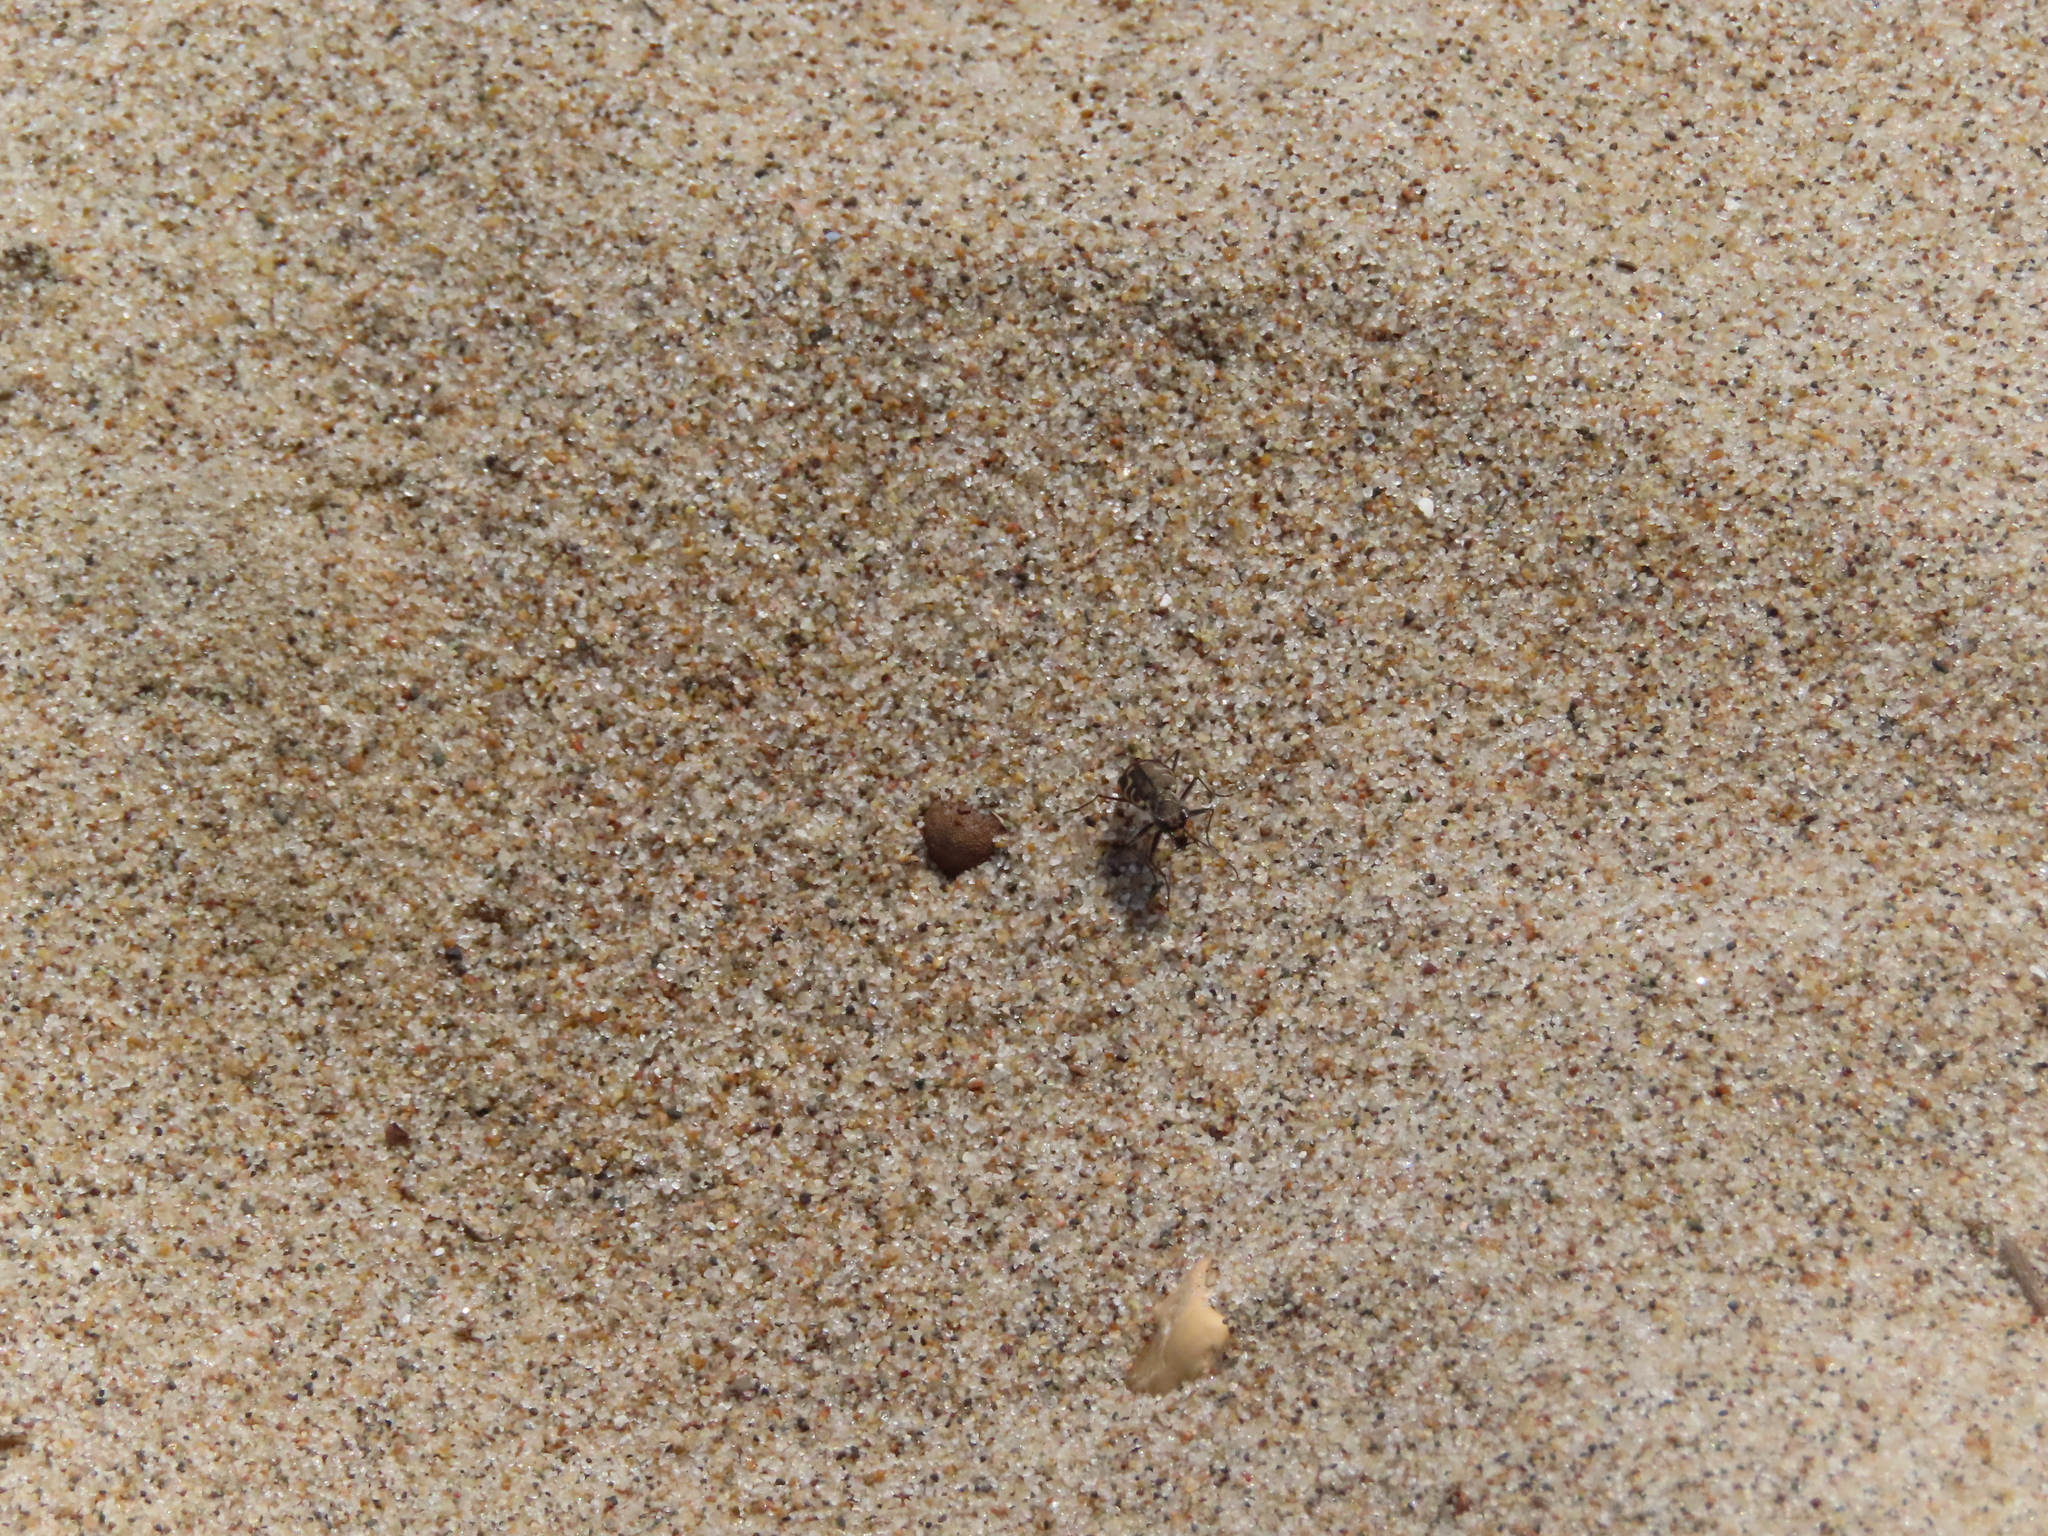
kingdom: Animalia
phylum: Arthropoda
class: Insecta
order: Coleoptera
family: Carabidae
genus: Cicindela
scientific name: Cicindela repanda
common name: Bronzed tiger beetle
